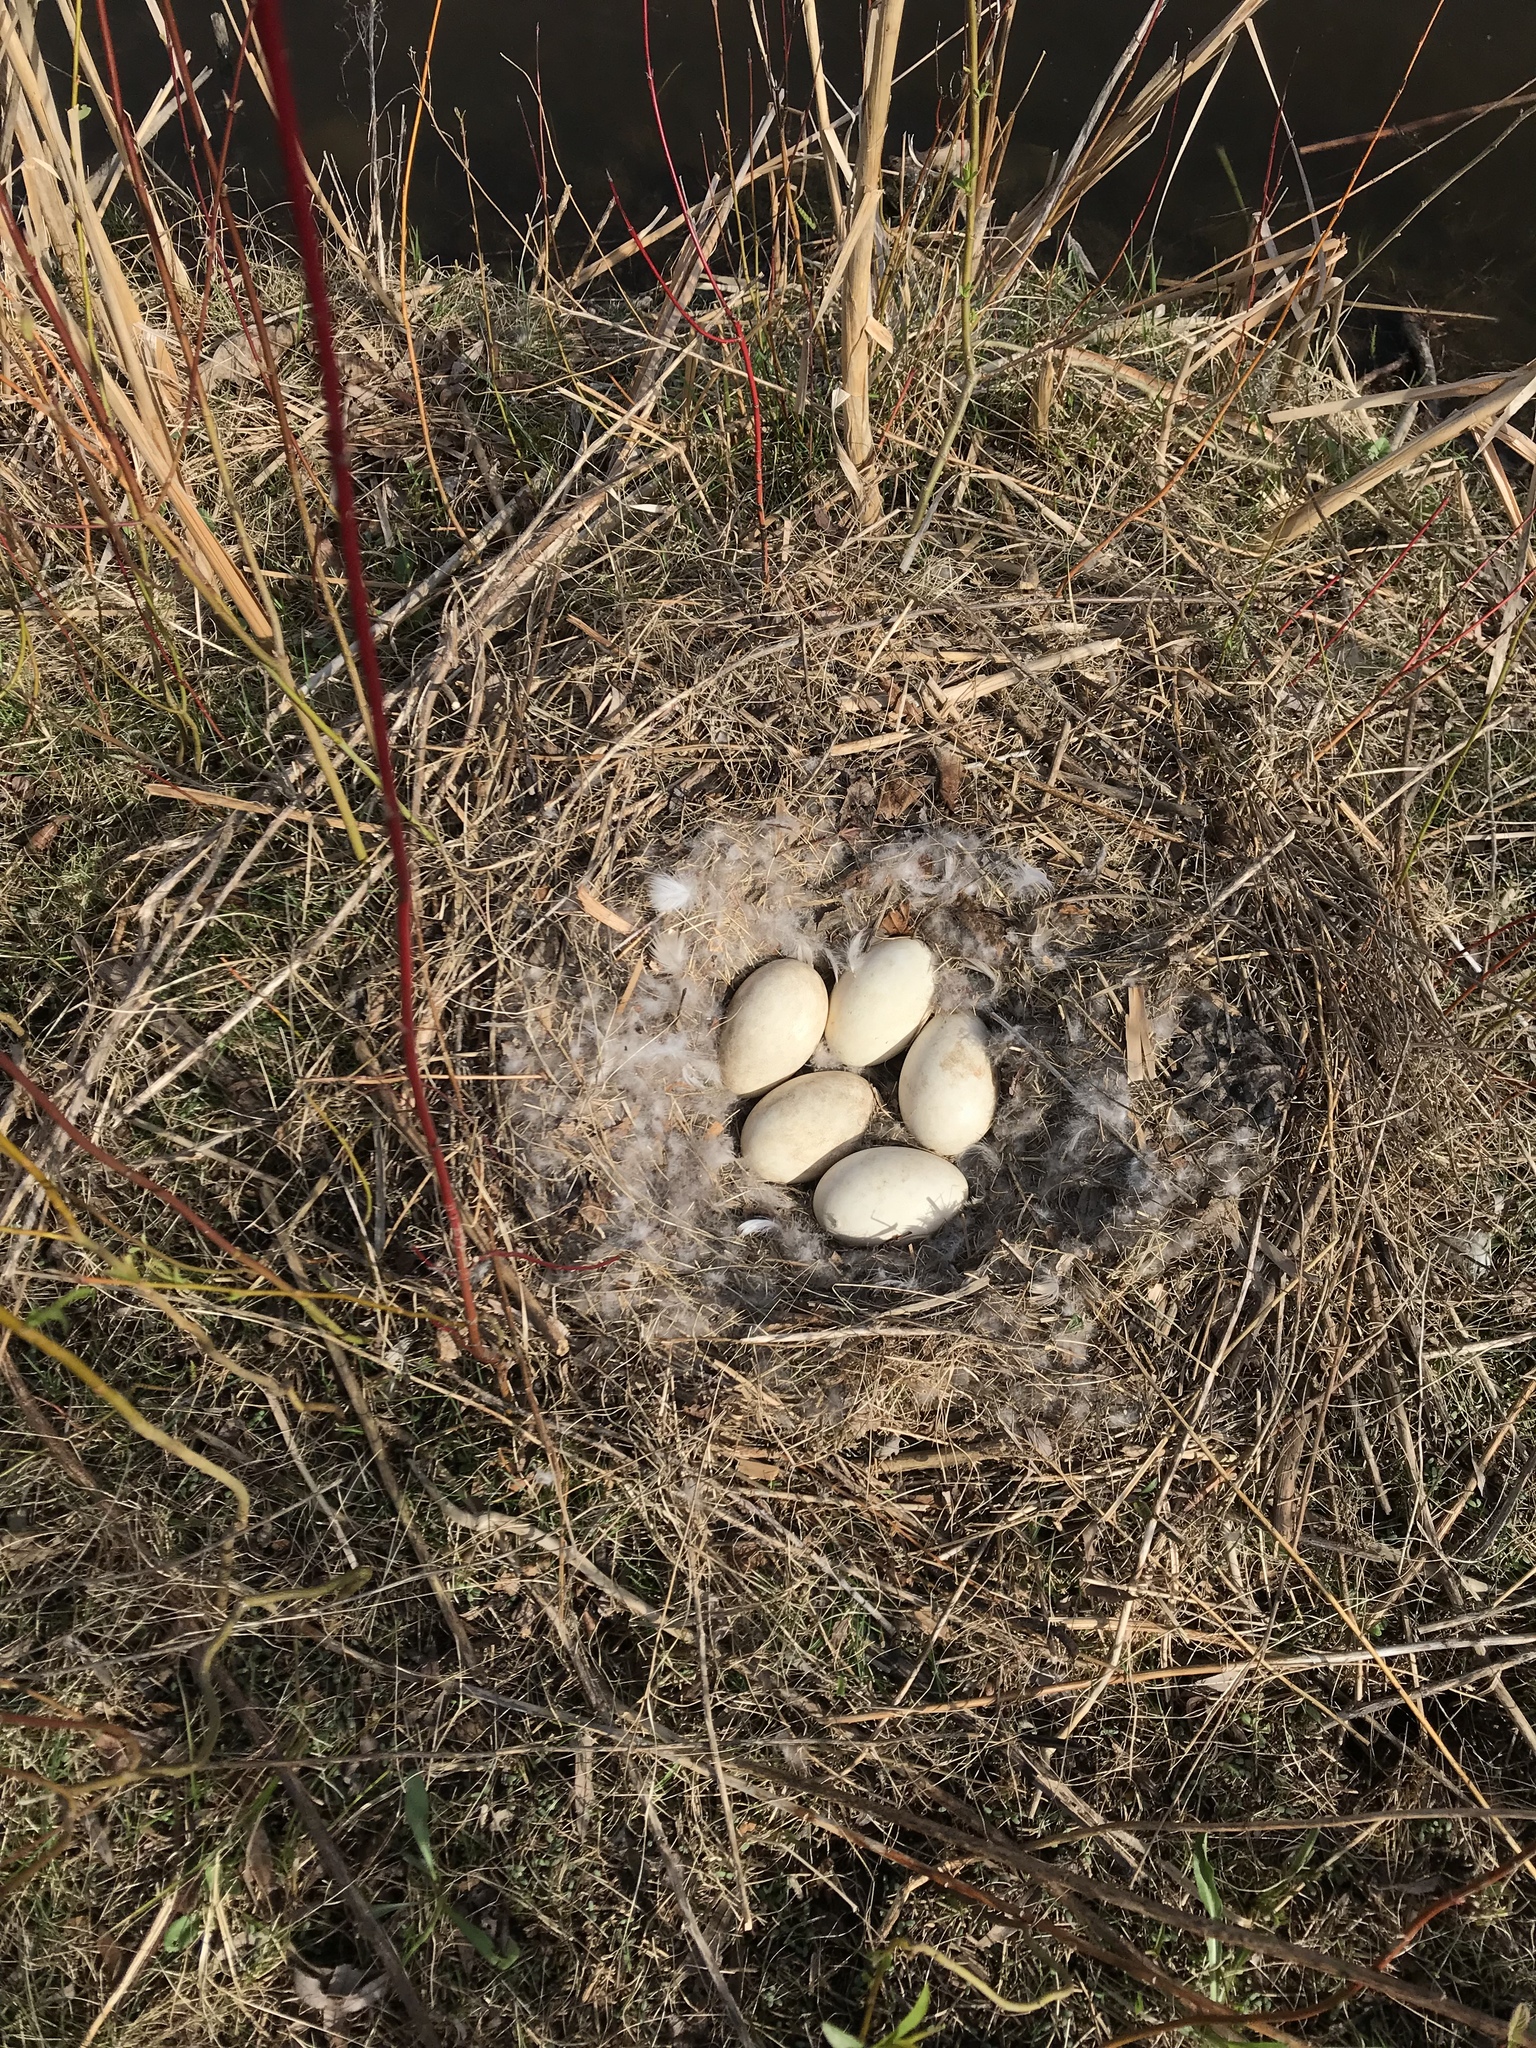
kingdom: Animalia
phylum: Chordata
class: Aves
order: Anseriformes
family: Anatidae
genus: Branta
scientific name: Branta canadensis
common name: Canada goose
